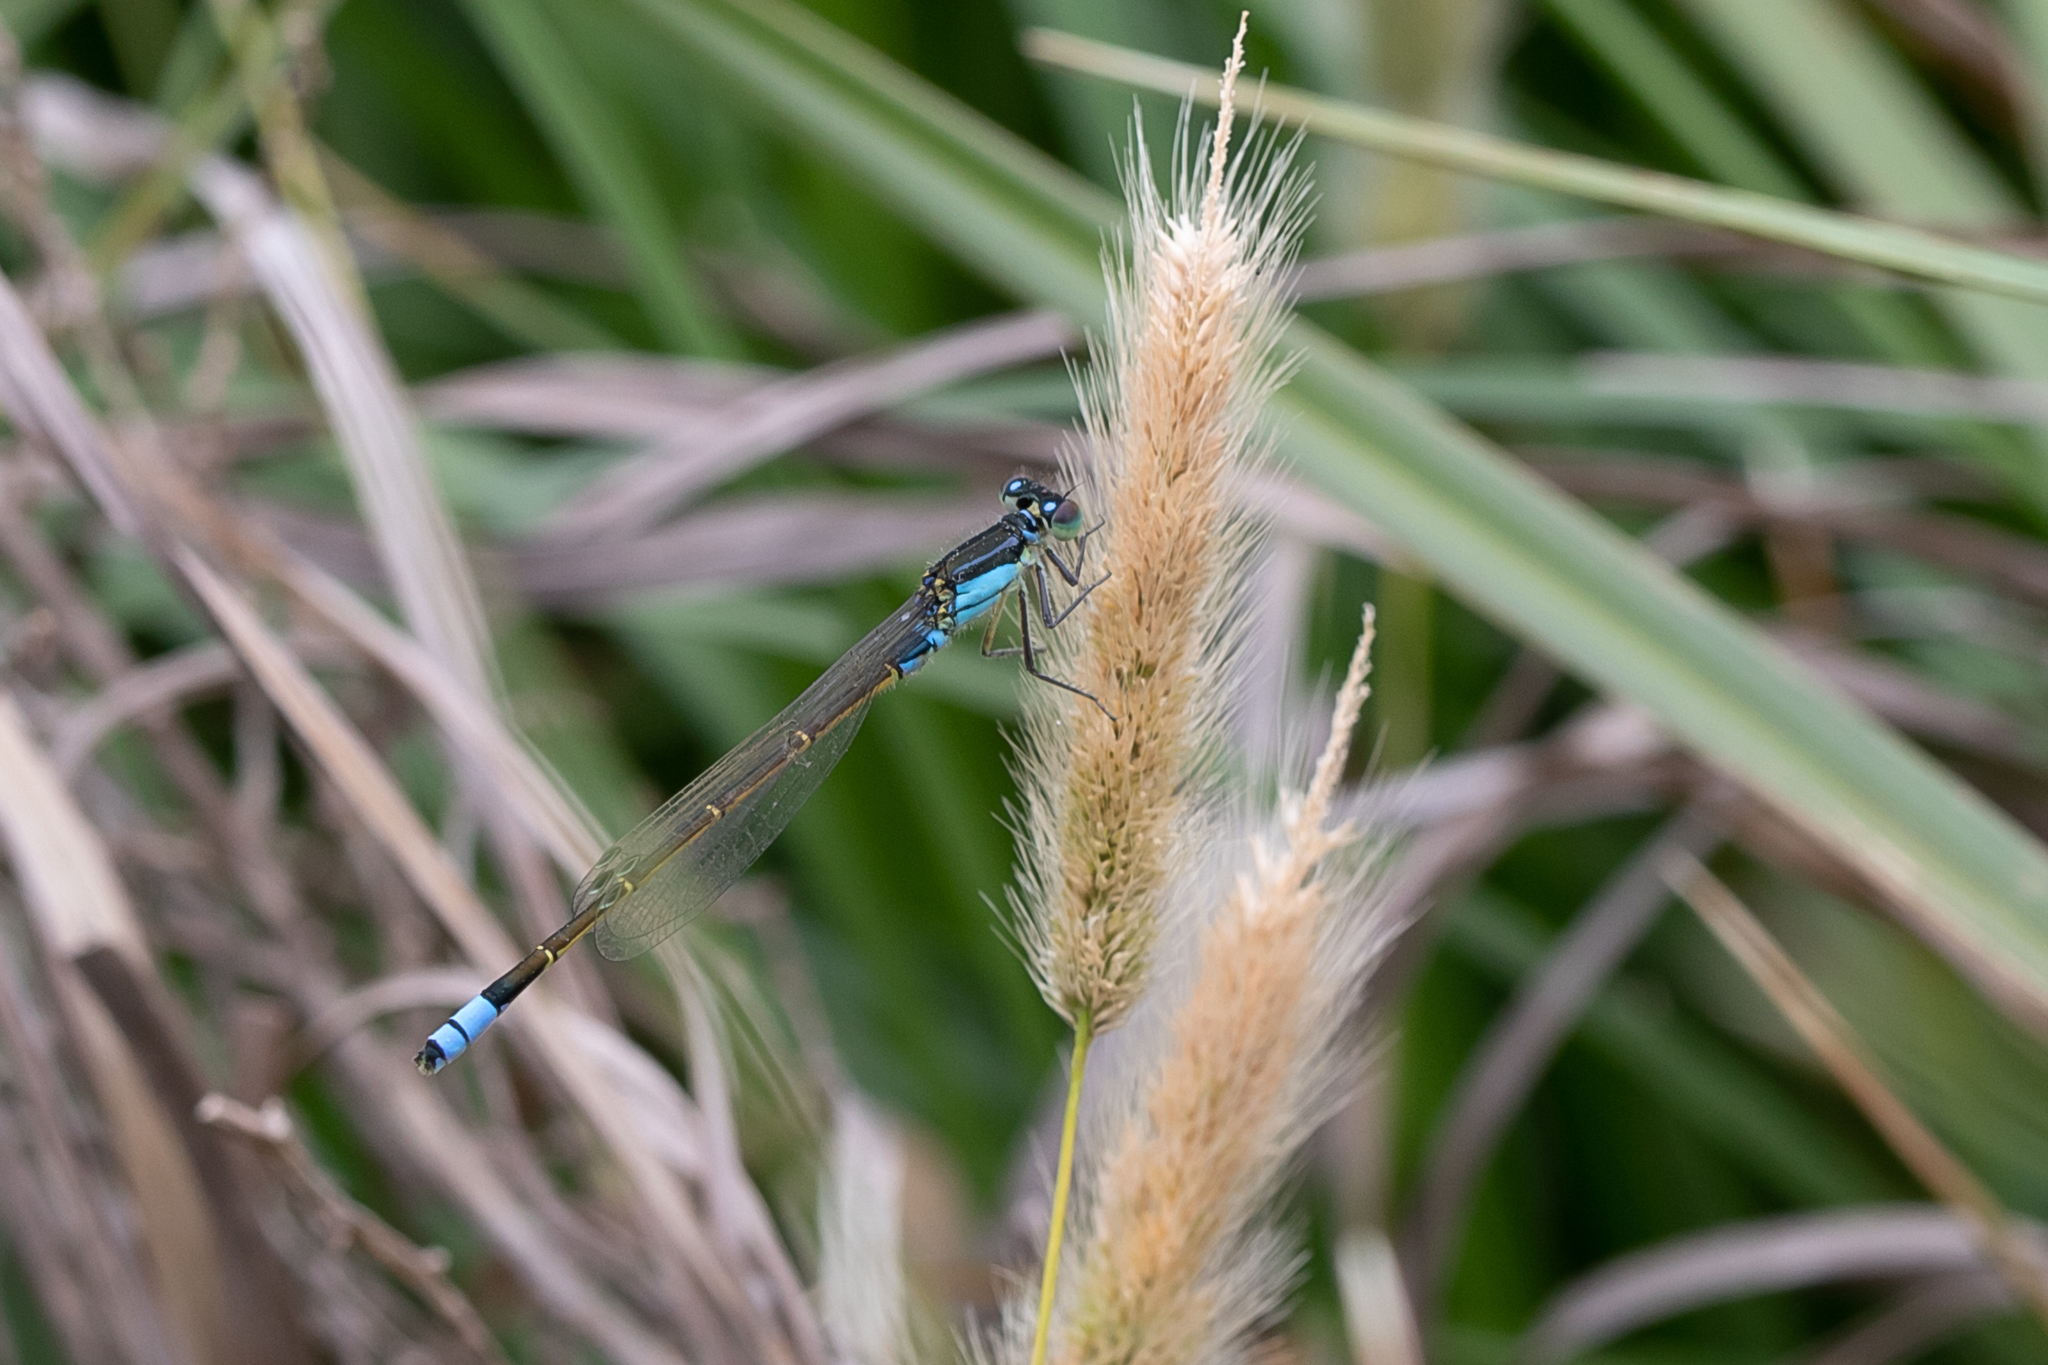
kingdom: Animalia
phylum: Arthropoda
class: Insecta
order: Odonata
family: Coenagrionidae
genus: Ischnura
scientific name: Ischnura heterosticta
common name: Common bluetail
